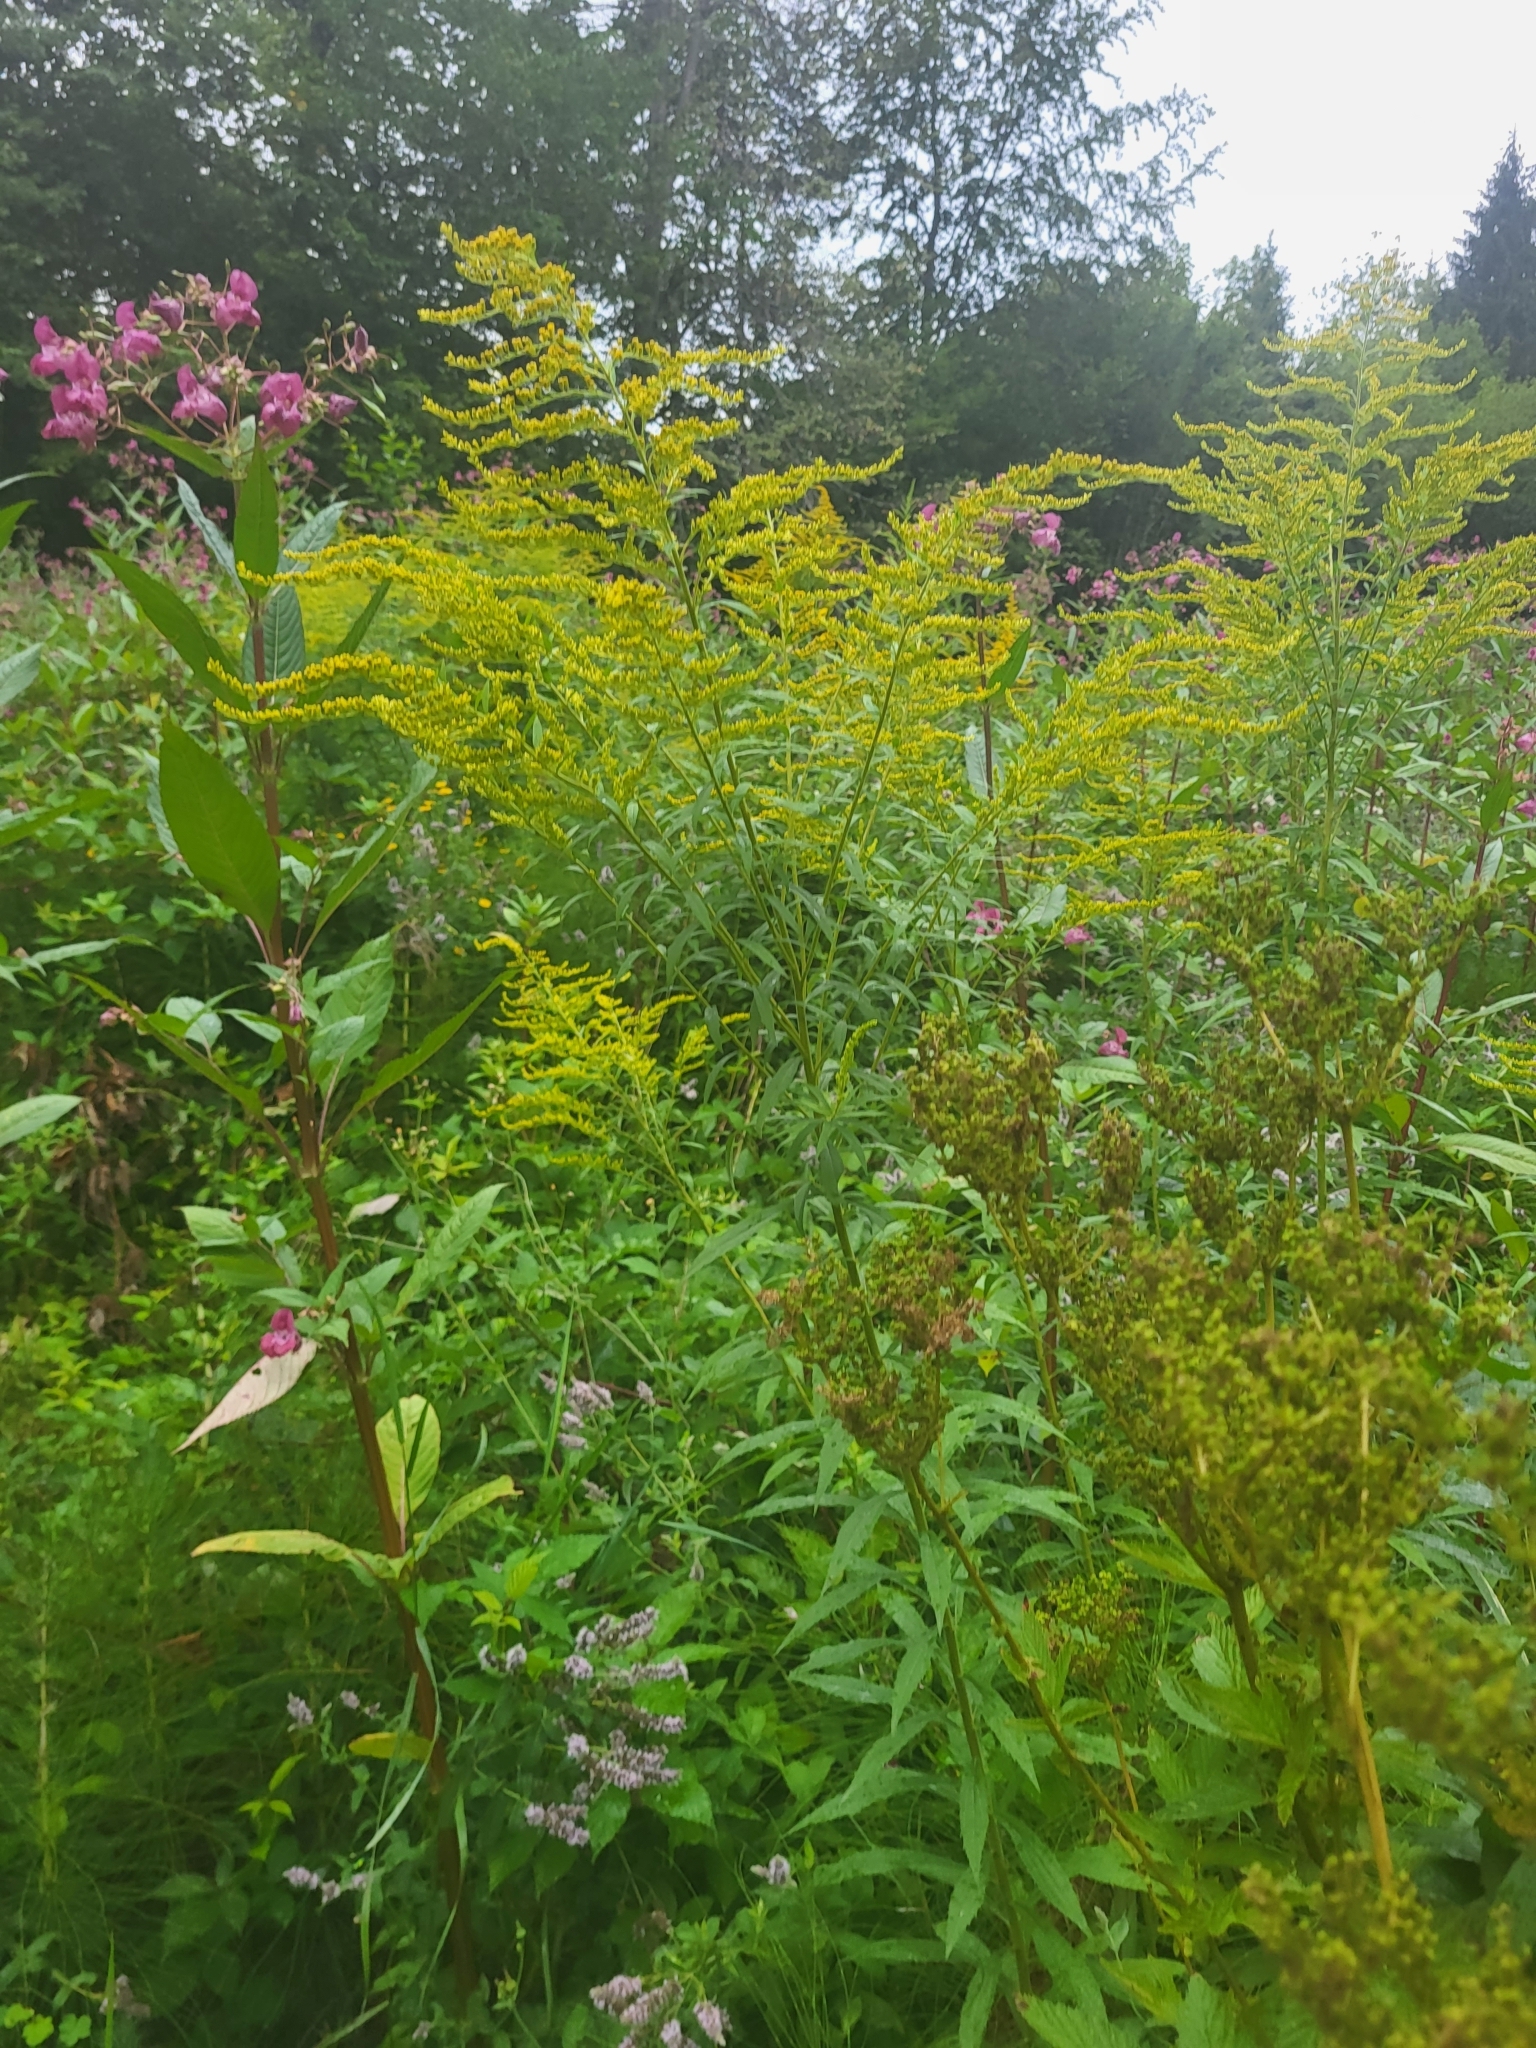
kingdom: Plantae
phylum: Tracheophyta
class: Magnoliopsida
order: Asterales
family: Asteraceae
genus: Solidago
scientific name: Solidago canadensis
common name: Canada goldenrod
